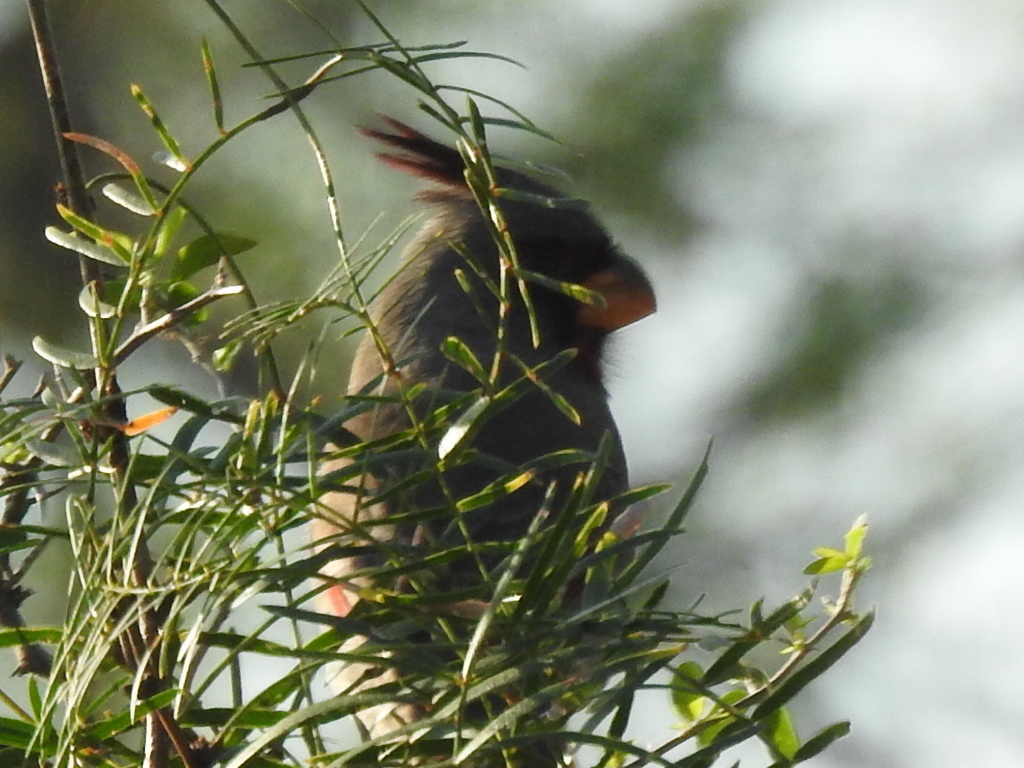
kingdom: Animalia
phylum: Chordata
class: Aves
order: Passeriformes
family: Cardinalidae
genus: Cardinalis
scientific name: Cardinalis sinuatus
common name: Pyrrhuloxia
